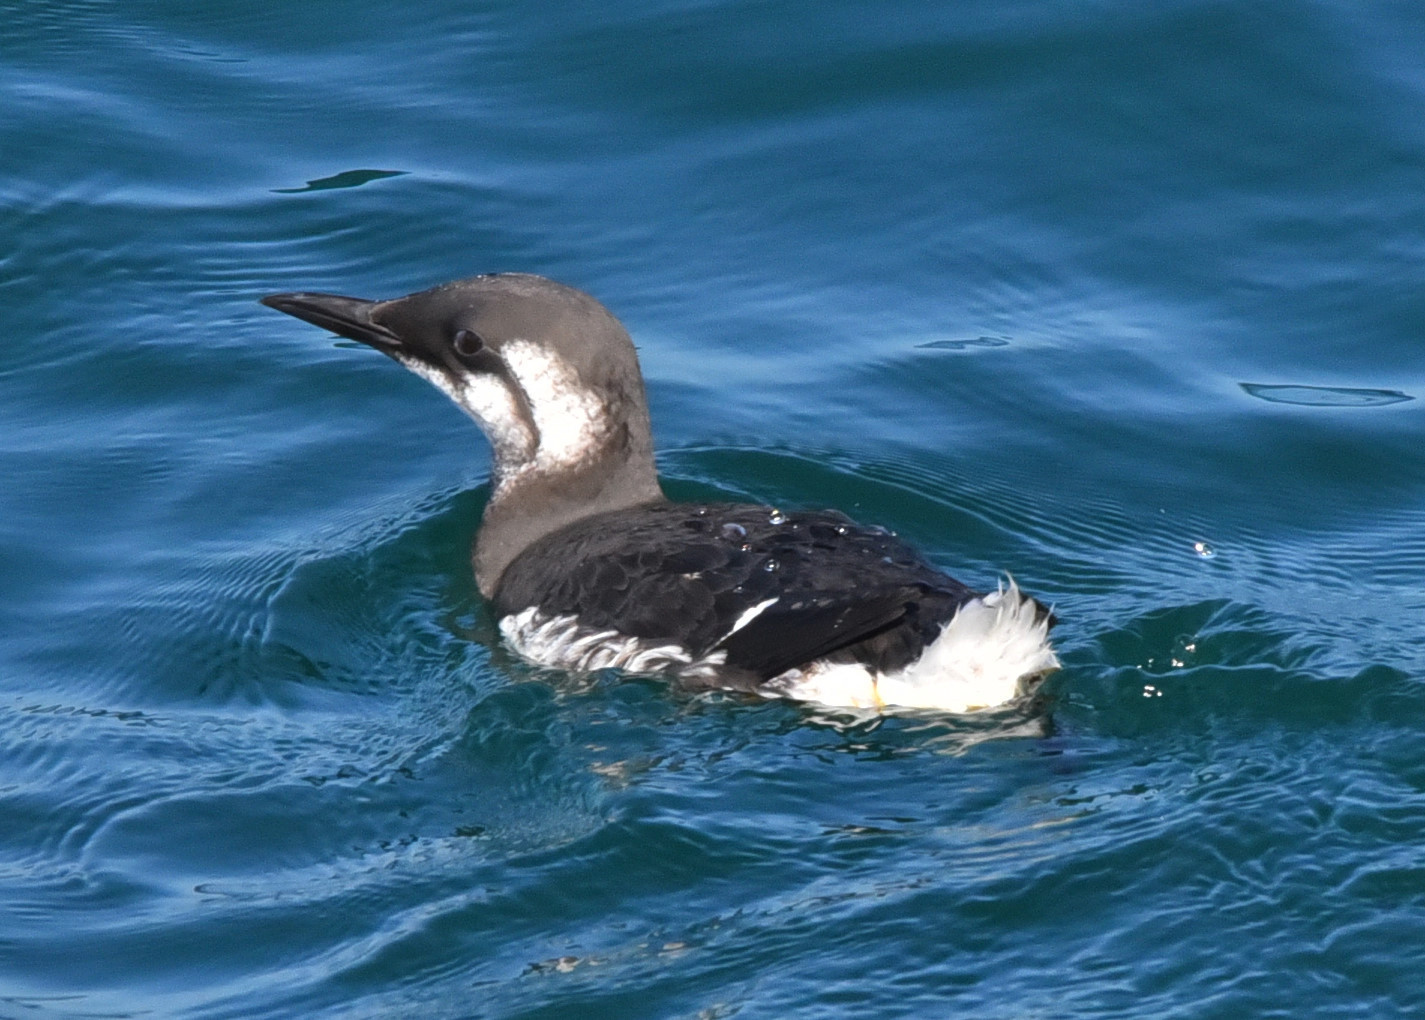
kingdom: Animalia
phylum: Chordata
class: Aves
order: Charadriiformes
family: Alcidae
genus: Uria
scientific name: Uria aalge
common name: Common murre
